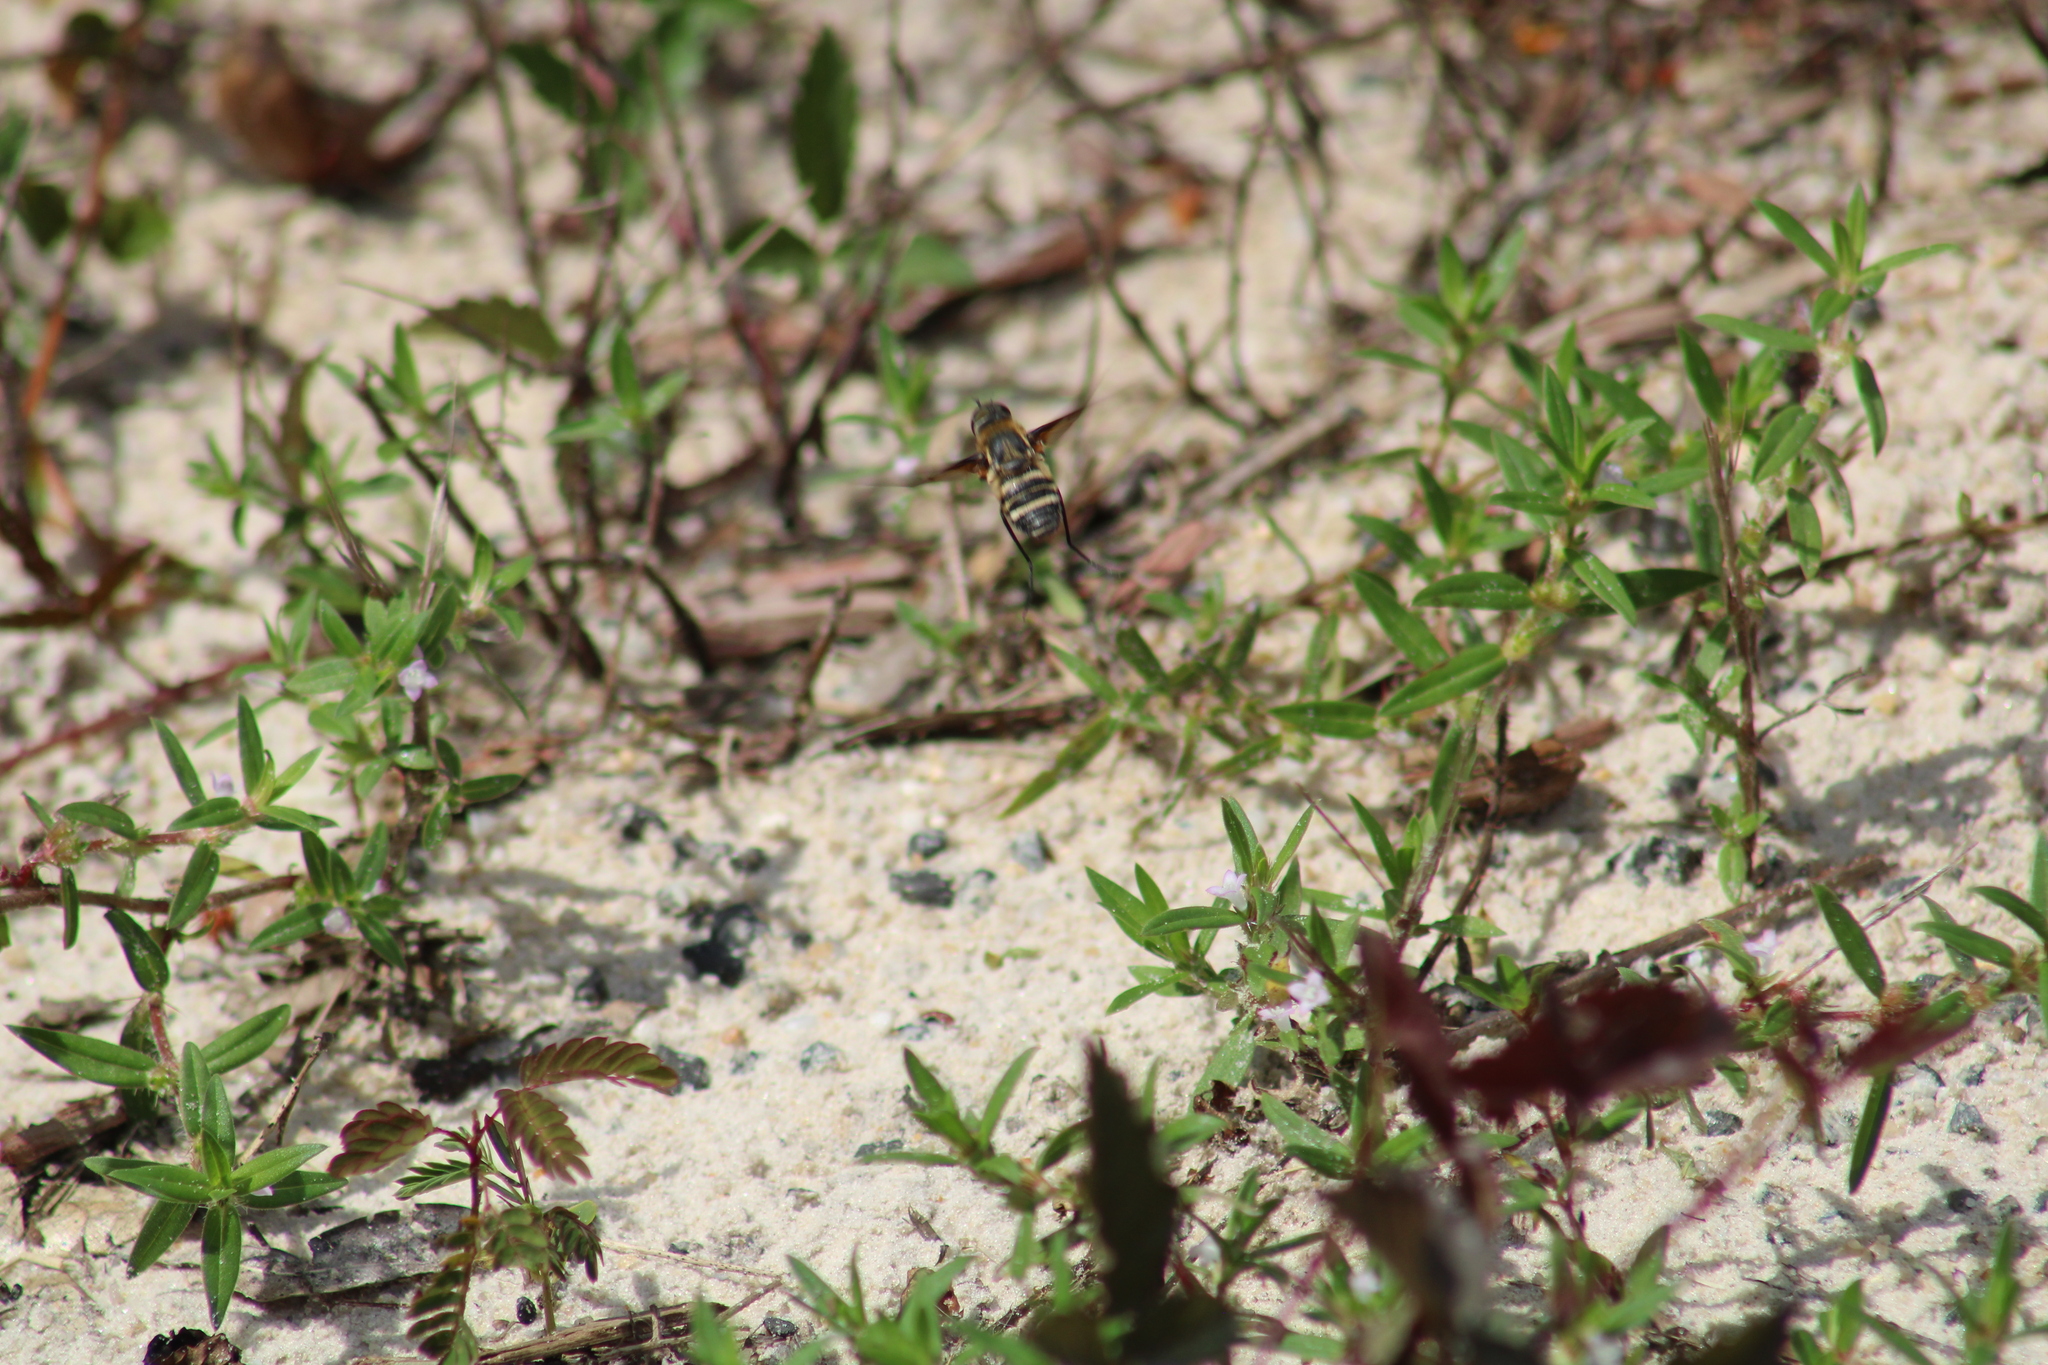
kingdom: Animalia
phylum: Arthropoda
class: Insecta
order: Diptera
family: Bombyliidae
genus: Exoprosopa
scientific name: Exoprosopa fasciata
